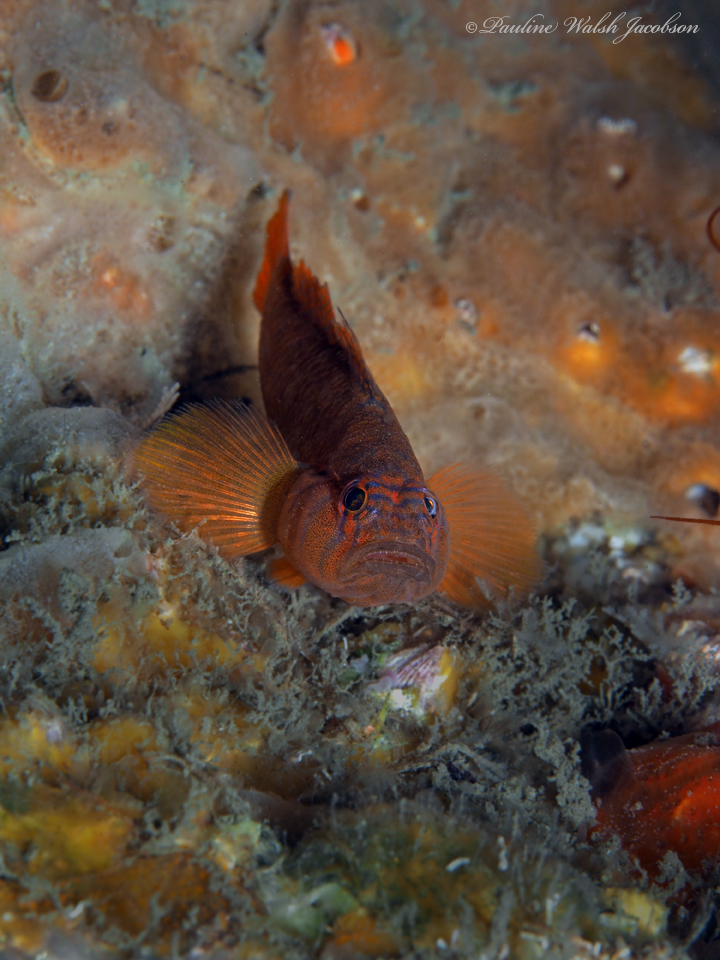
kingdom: Animalia
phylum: Chordata
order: Perciformes
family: Gobiidae
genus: Priolepis
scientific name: Priolepis hipoliti
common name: Rusty goby
